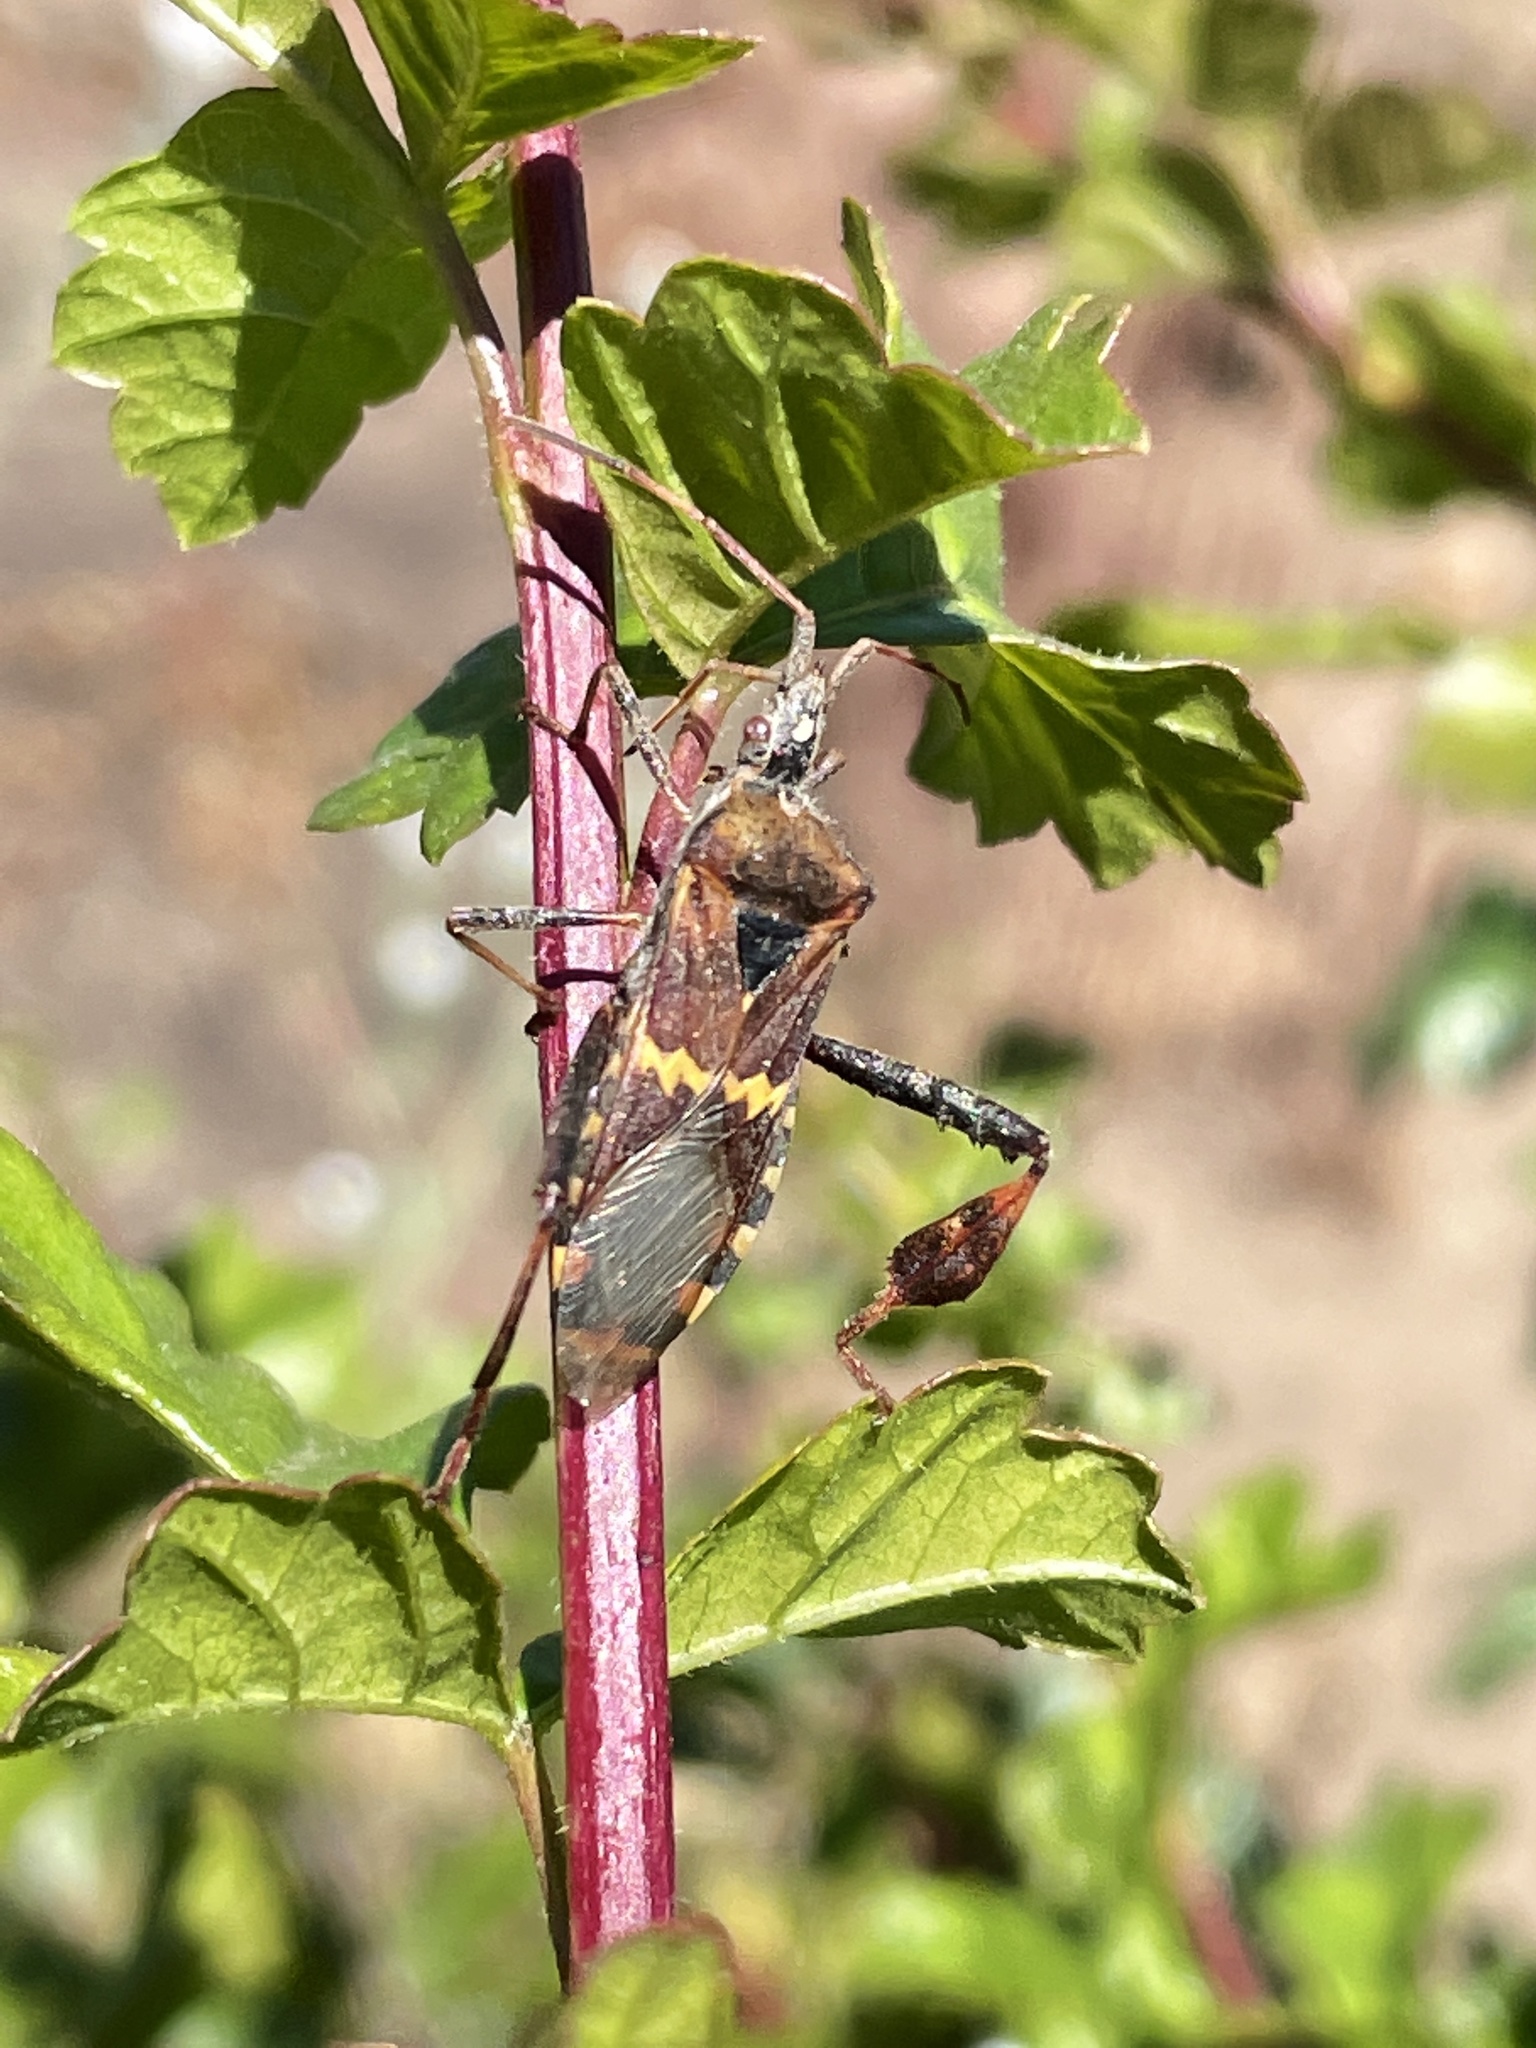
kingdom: Animalia
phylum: Arthropoda
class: Insecta
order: Hemiptera
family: Coreidae
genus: Leptoglossus
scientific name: Leptoglossus clypealis
